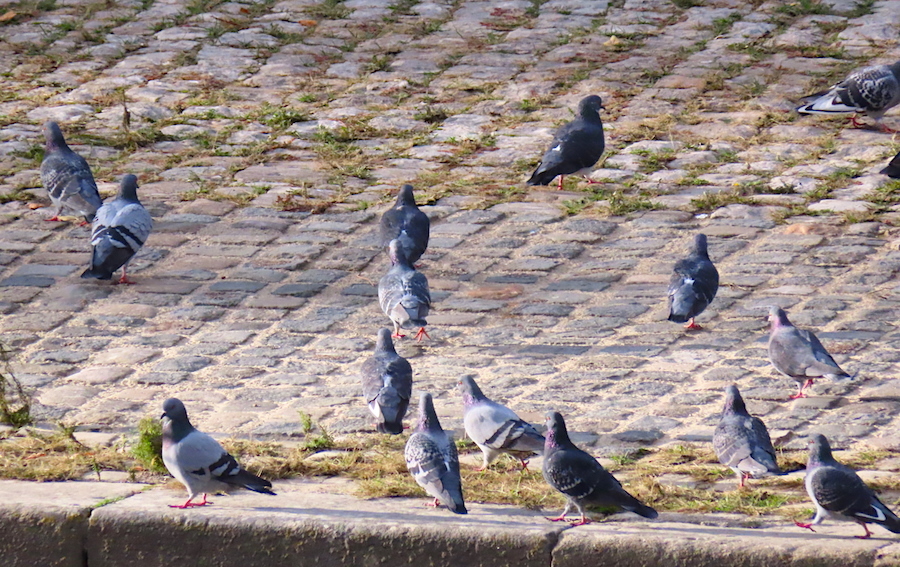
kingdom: Animalia
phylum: Chordata
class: Aves
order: Columbiformes
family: Columbidae
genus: Columba
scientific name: Columba livia
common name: Rock pigeon
